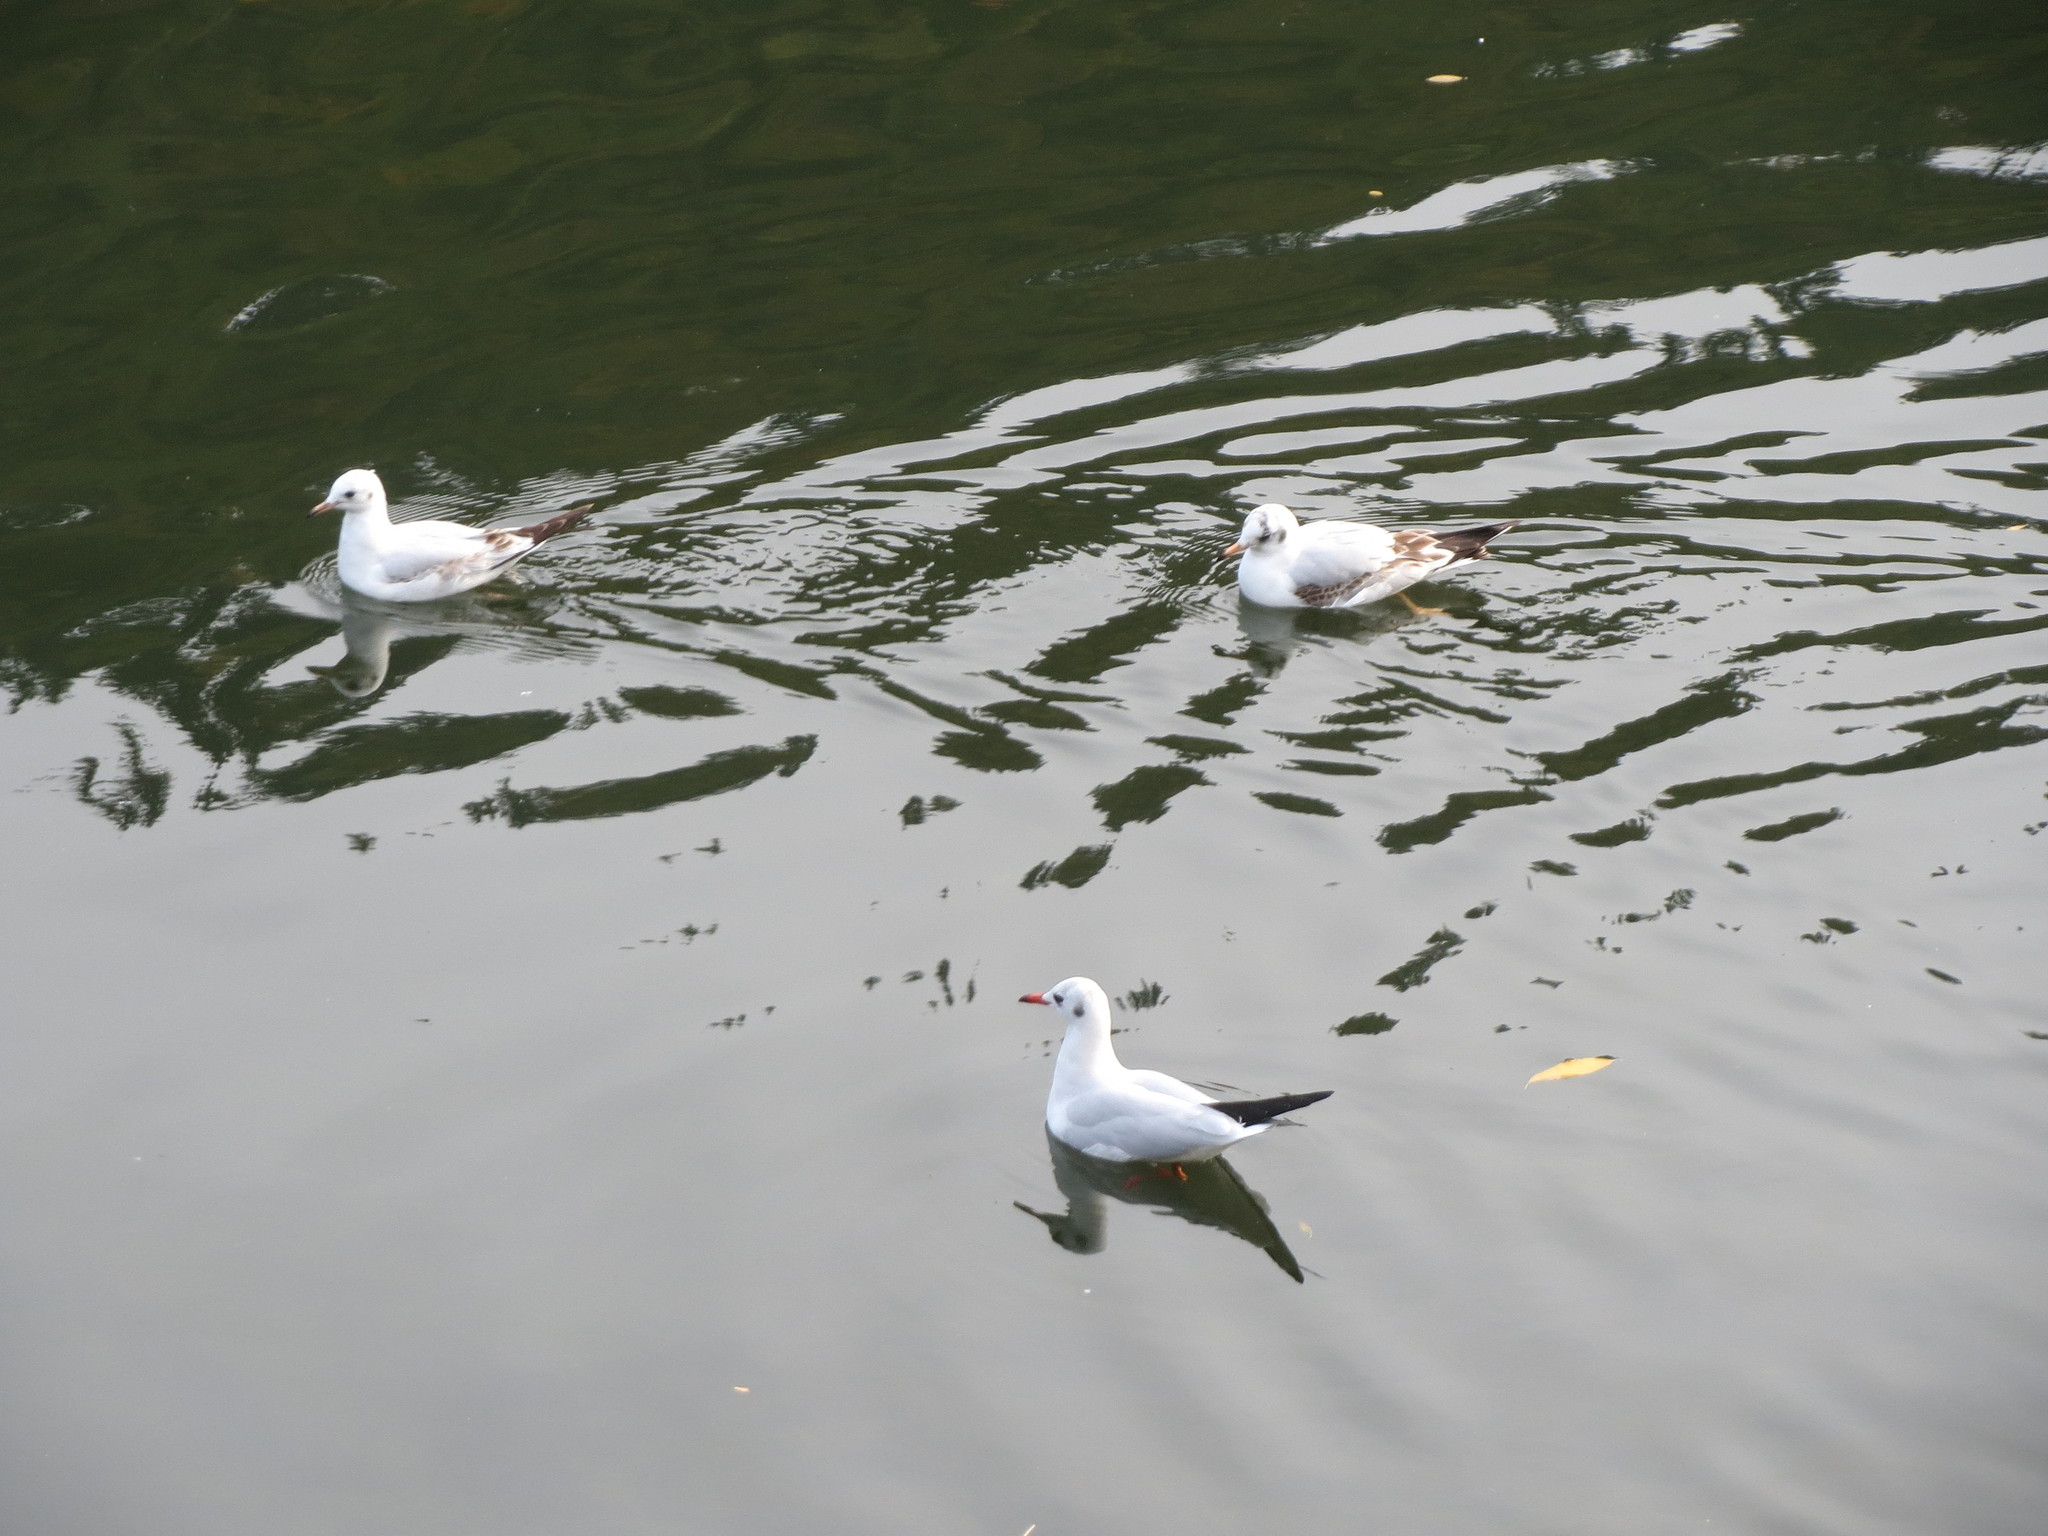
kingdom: Animalia
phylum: Chordata
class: Aves
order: Charadriiformes
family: Laridae
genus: Chroicocephalus
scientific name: Chroicocephalus ridibundus
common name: Black-headed gull
